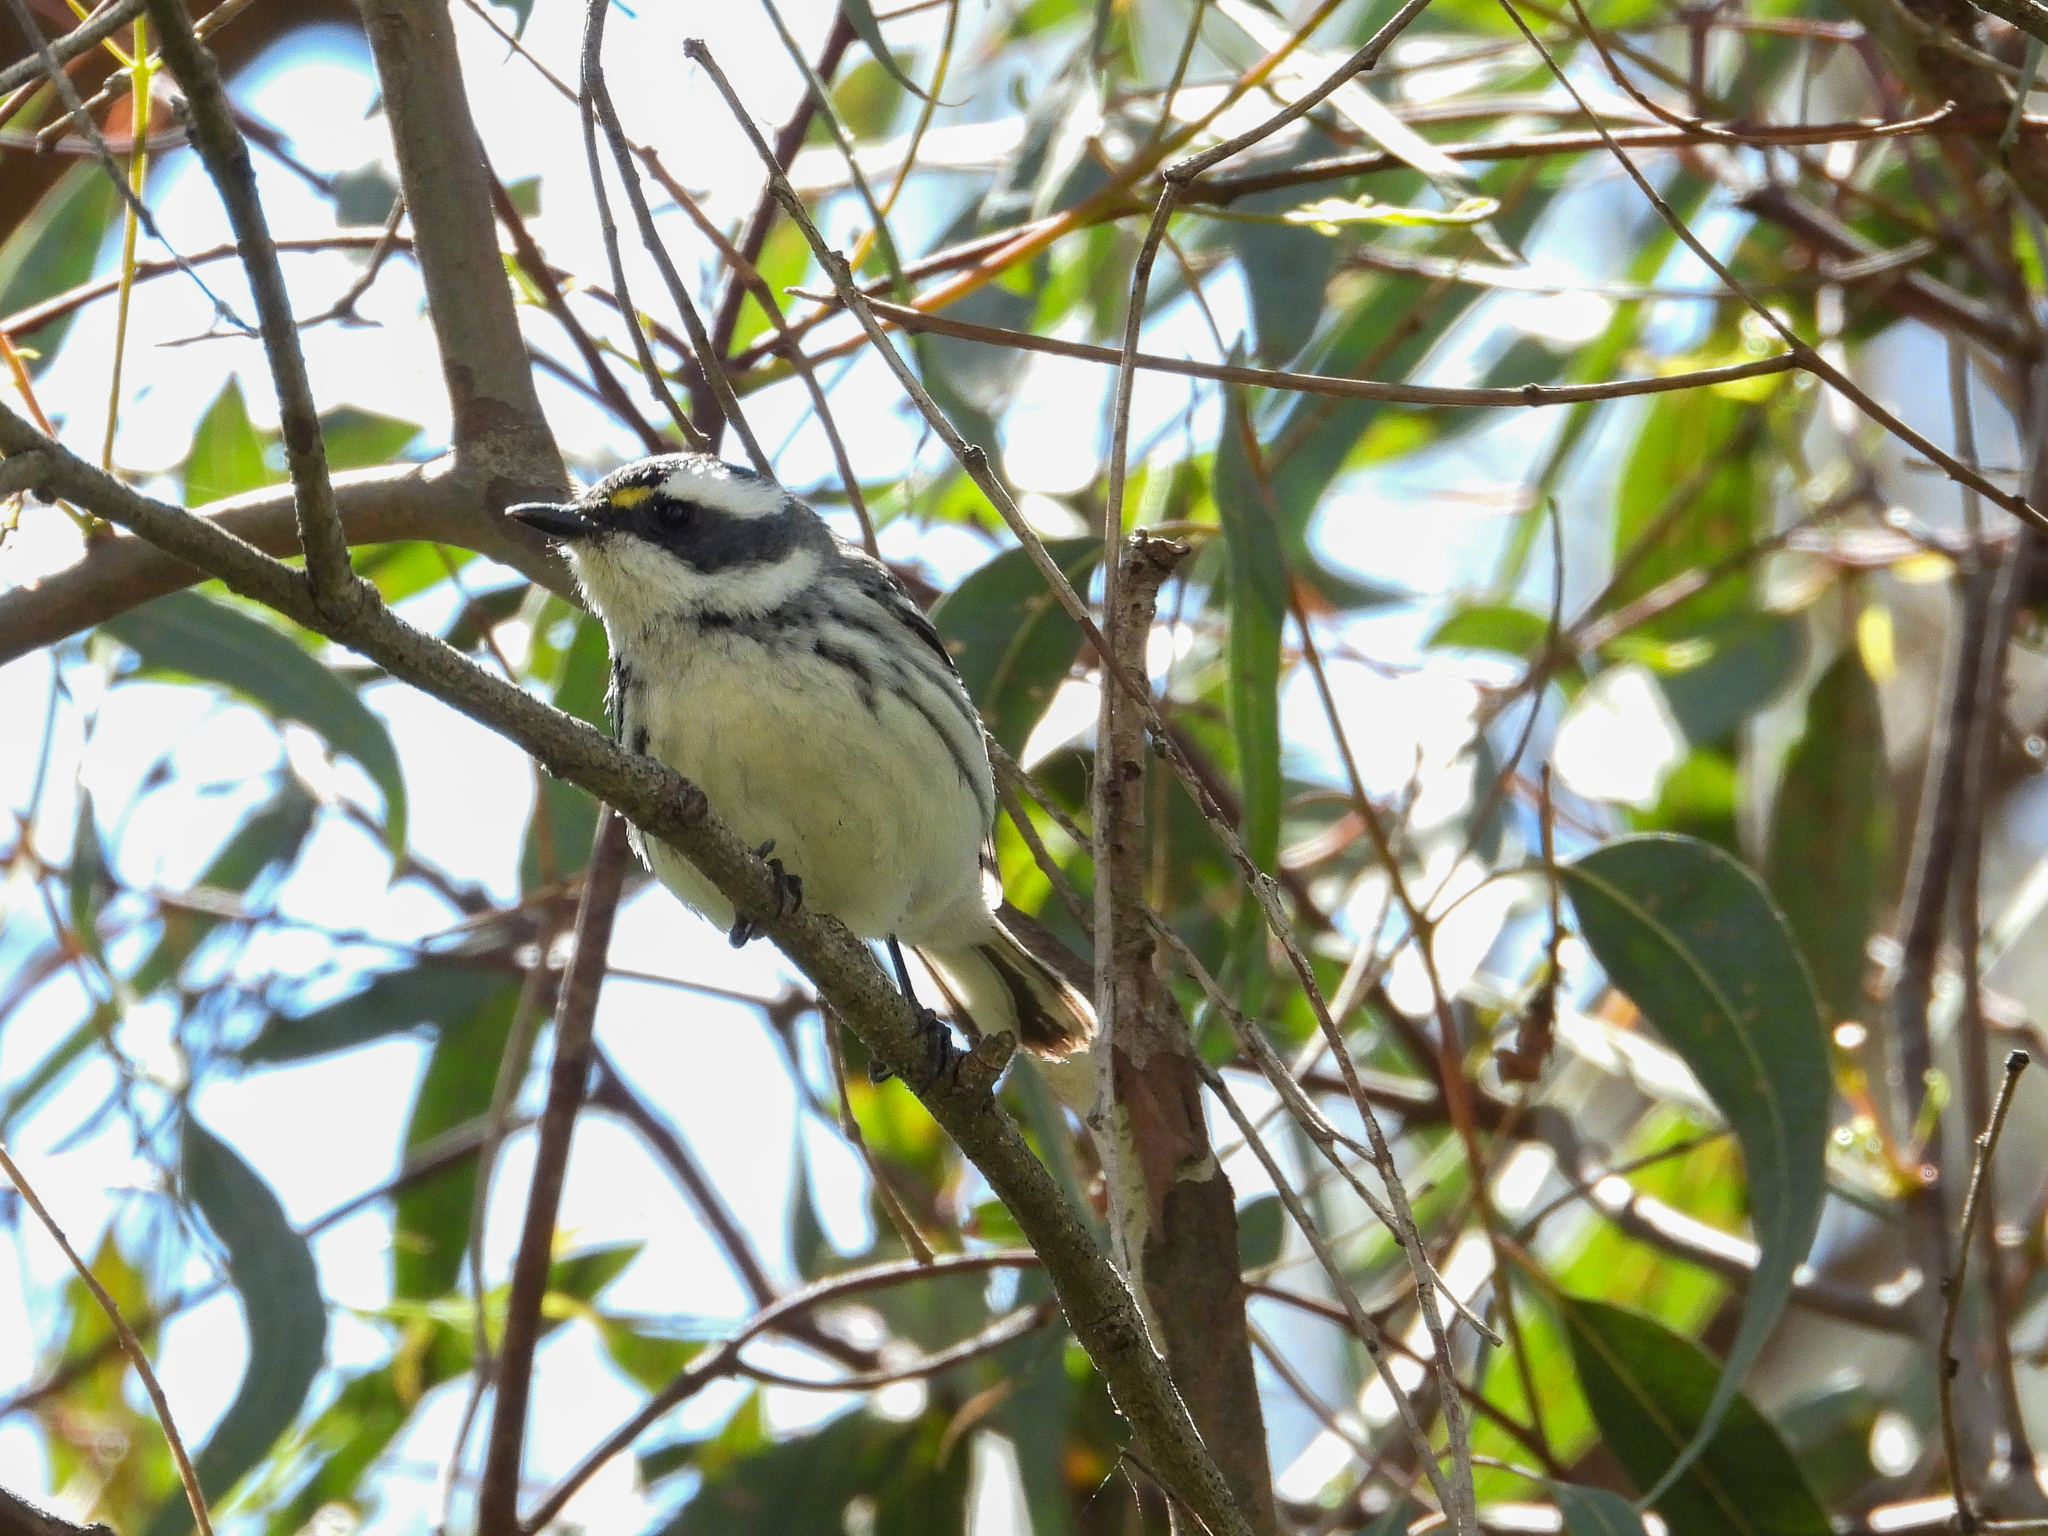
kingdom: Animalia
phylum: Chordata
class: Aves
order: Passeriformes
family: Parulidae
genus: Setophaga
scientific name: Setophaga nigrescens
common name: Black-throated gray warbler
